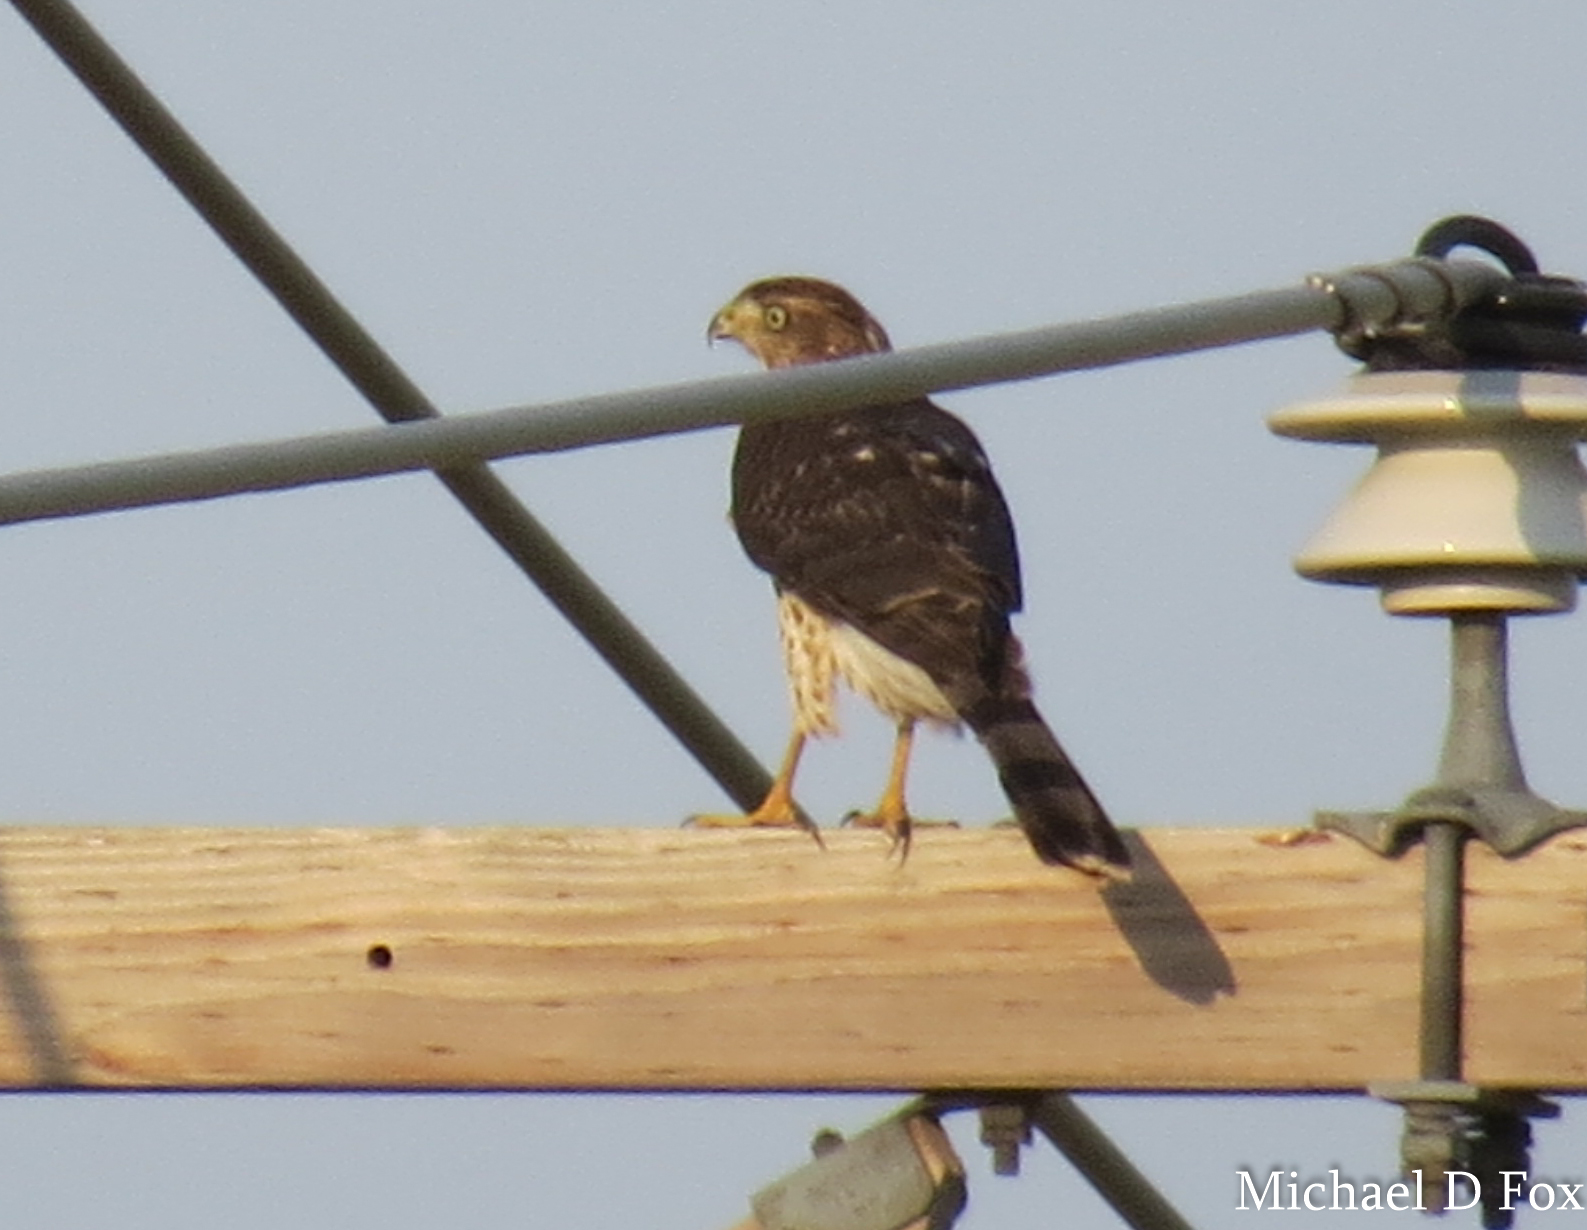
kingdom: Animalia
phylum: Chordata
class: Aves
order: Accipitriformes
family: Accipitridae
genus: Accipiter
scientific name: Accipiter cooperii
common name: Cooper's hawk
